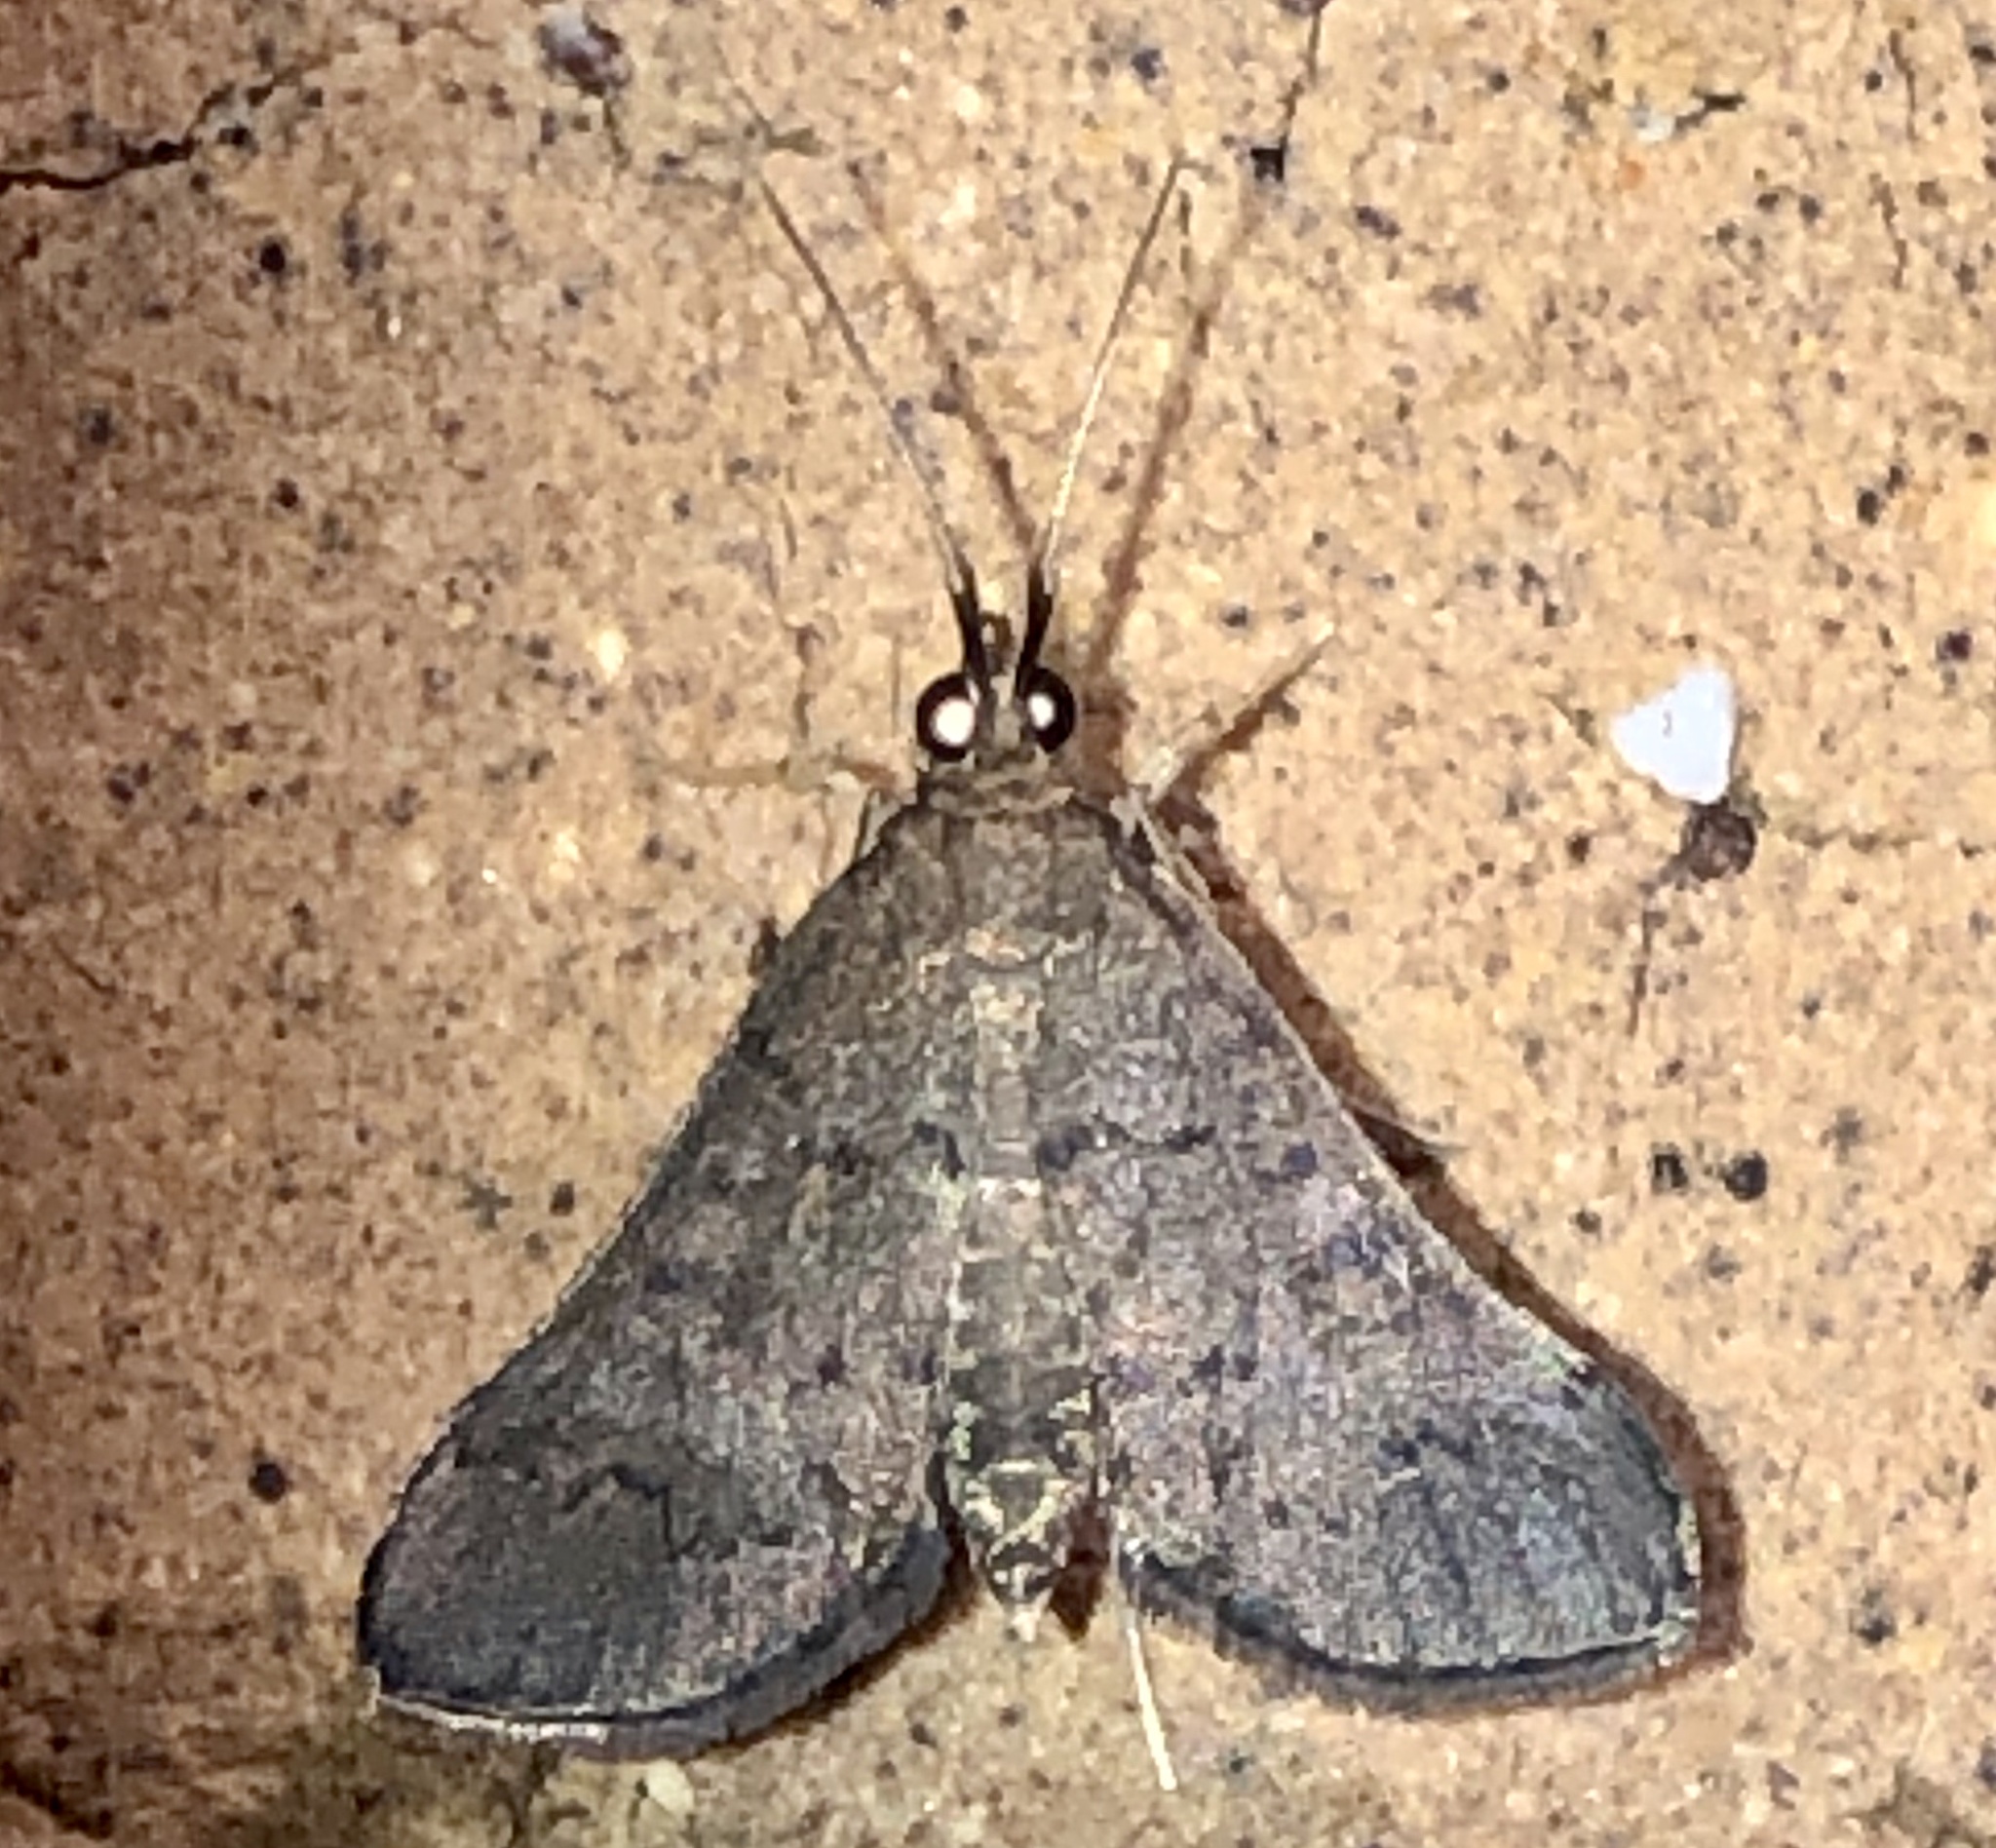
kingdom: Animalia
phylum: Arthropoda
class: Insecta
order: Lepidoptera
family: Crambidae
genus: Piletocera
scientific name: Piletocera macroperalis
